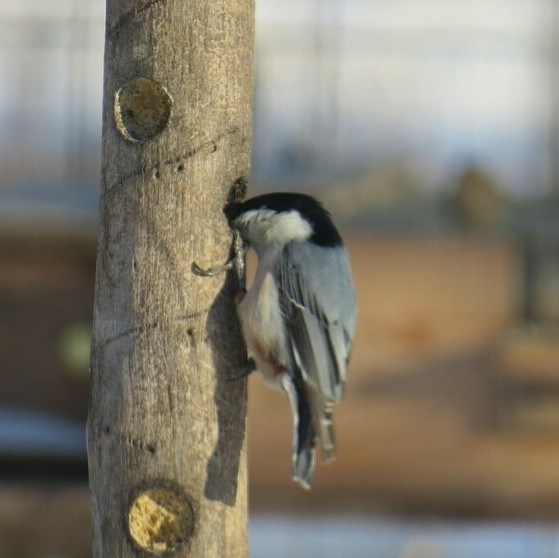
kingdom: Animalia
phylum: Chordata
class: Aves
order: Passeriformes
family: Sittidae
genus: Sitta
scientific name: Sitta carolinensis
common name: White-breasted nuthatch
